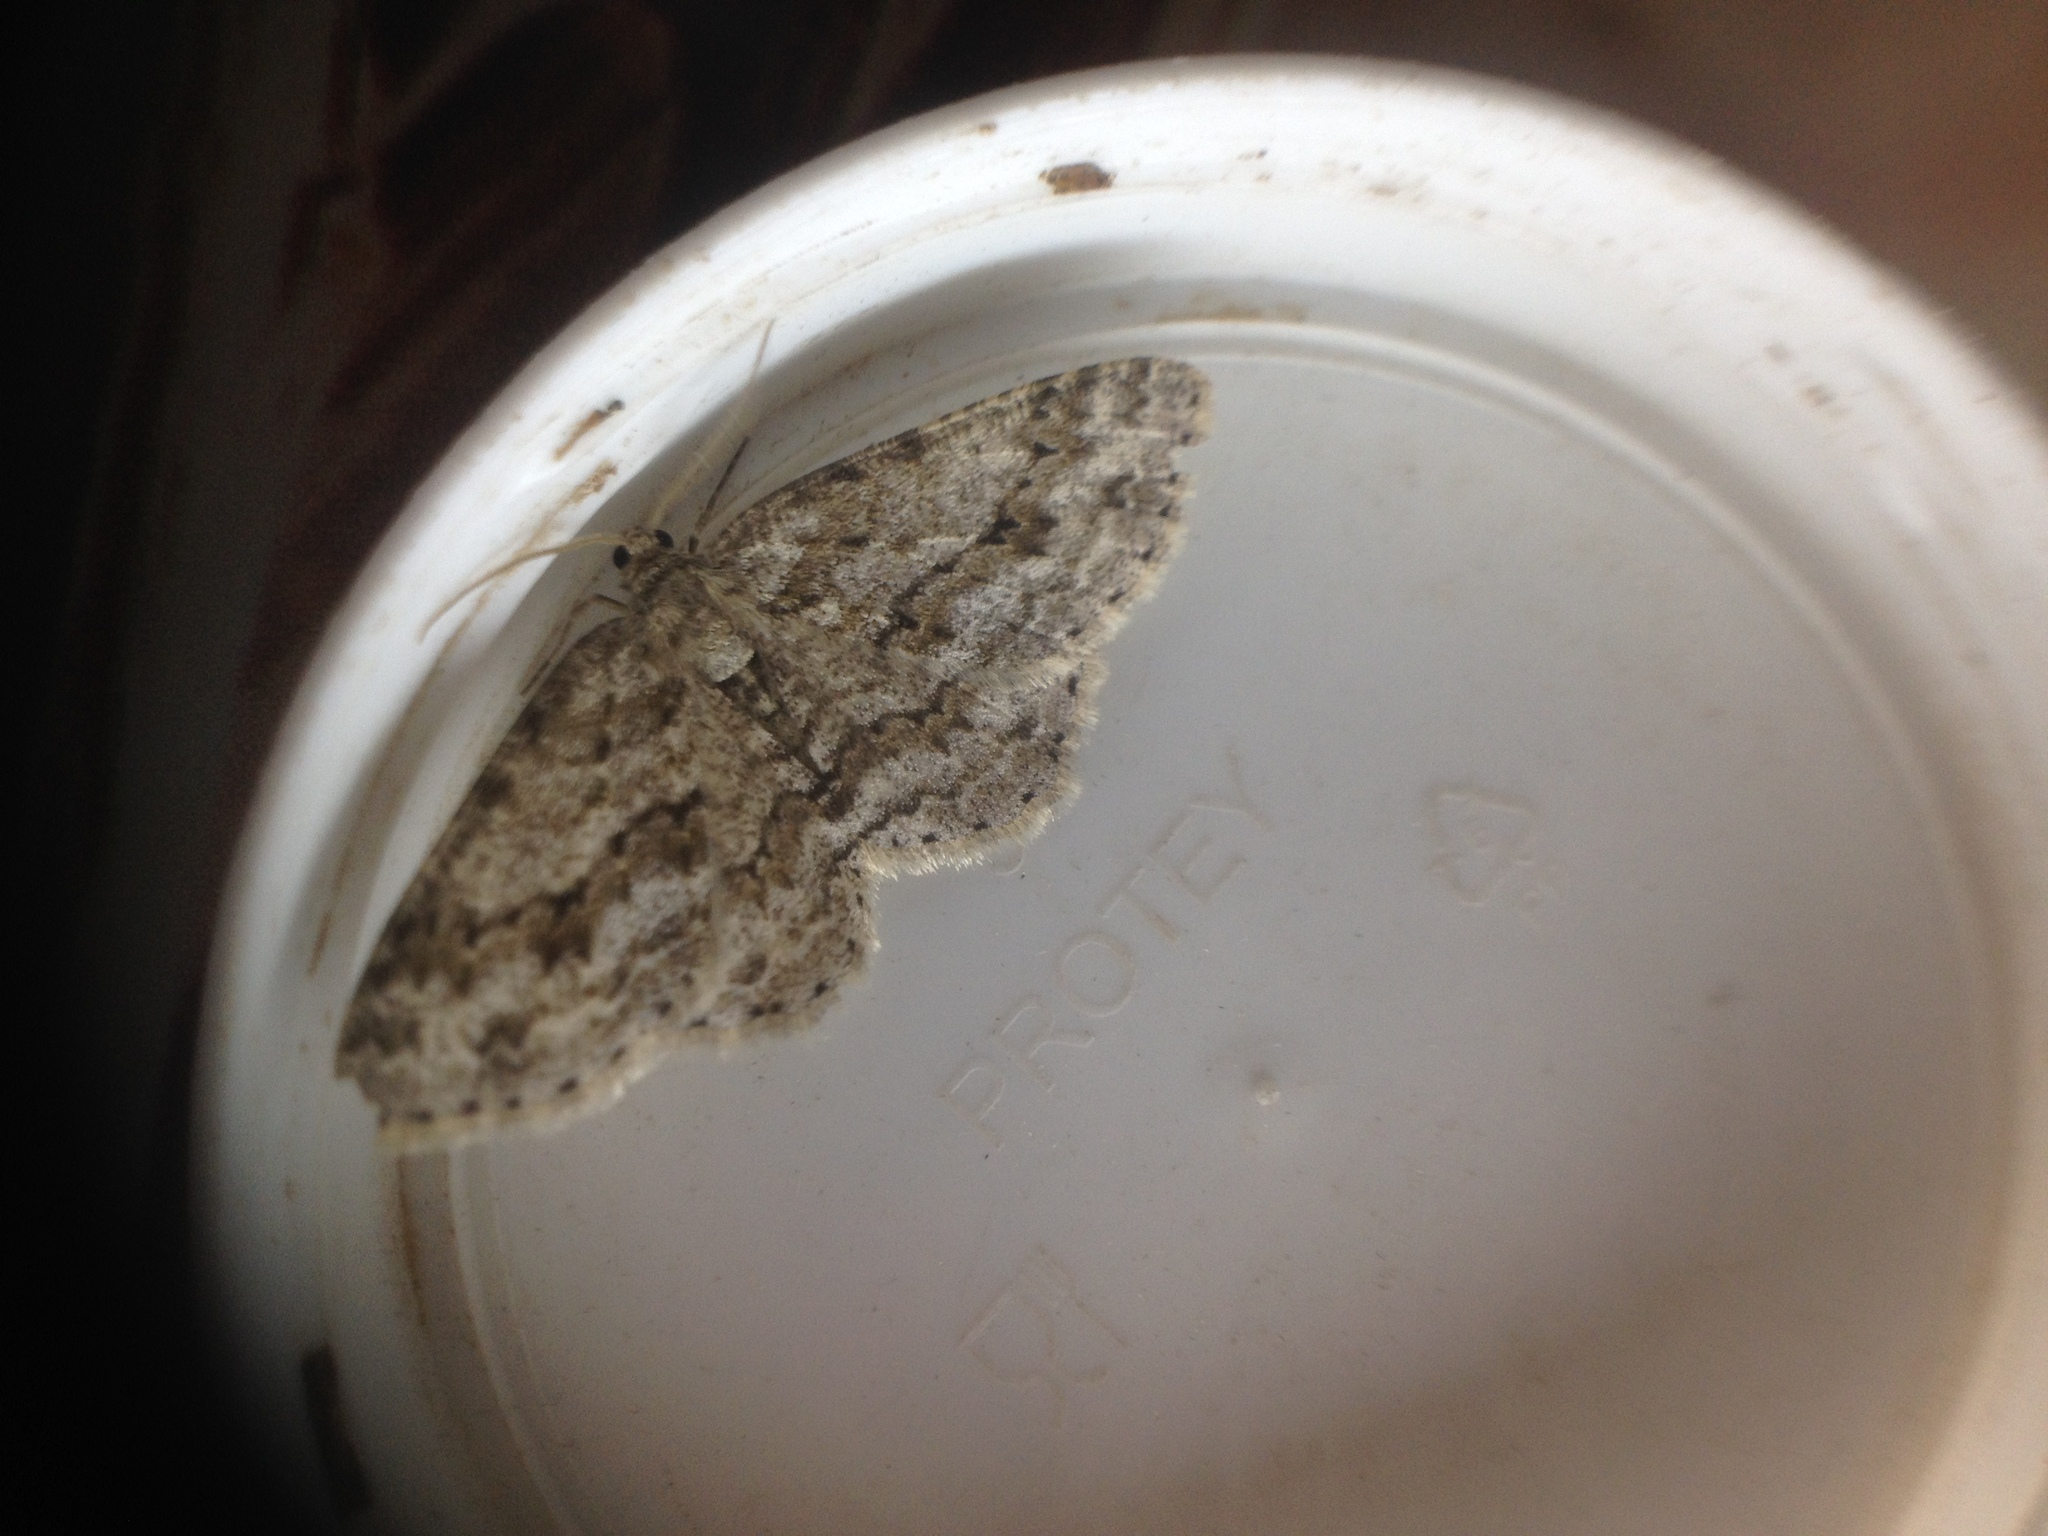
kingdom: Animalia
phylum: Arthropoda
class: Insecta
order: Lepidoptera
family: Geometridae
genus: Ectropis
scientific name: Ectropis crepuscularia
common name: Engrailed
